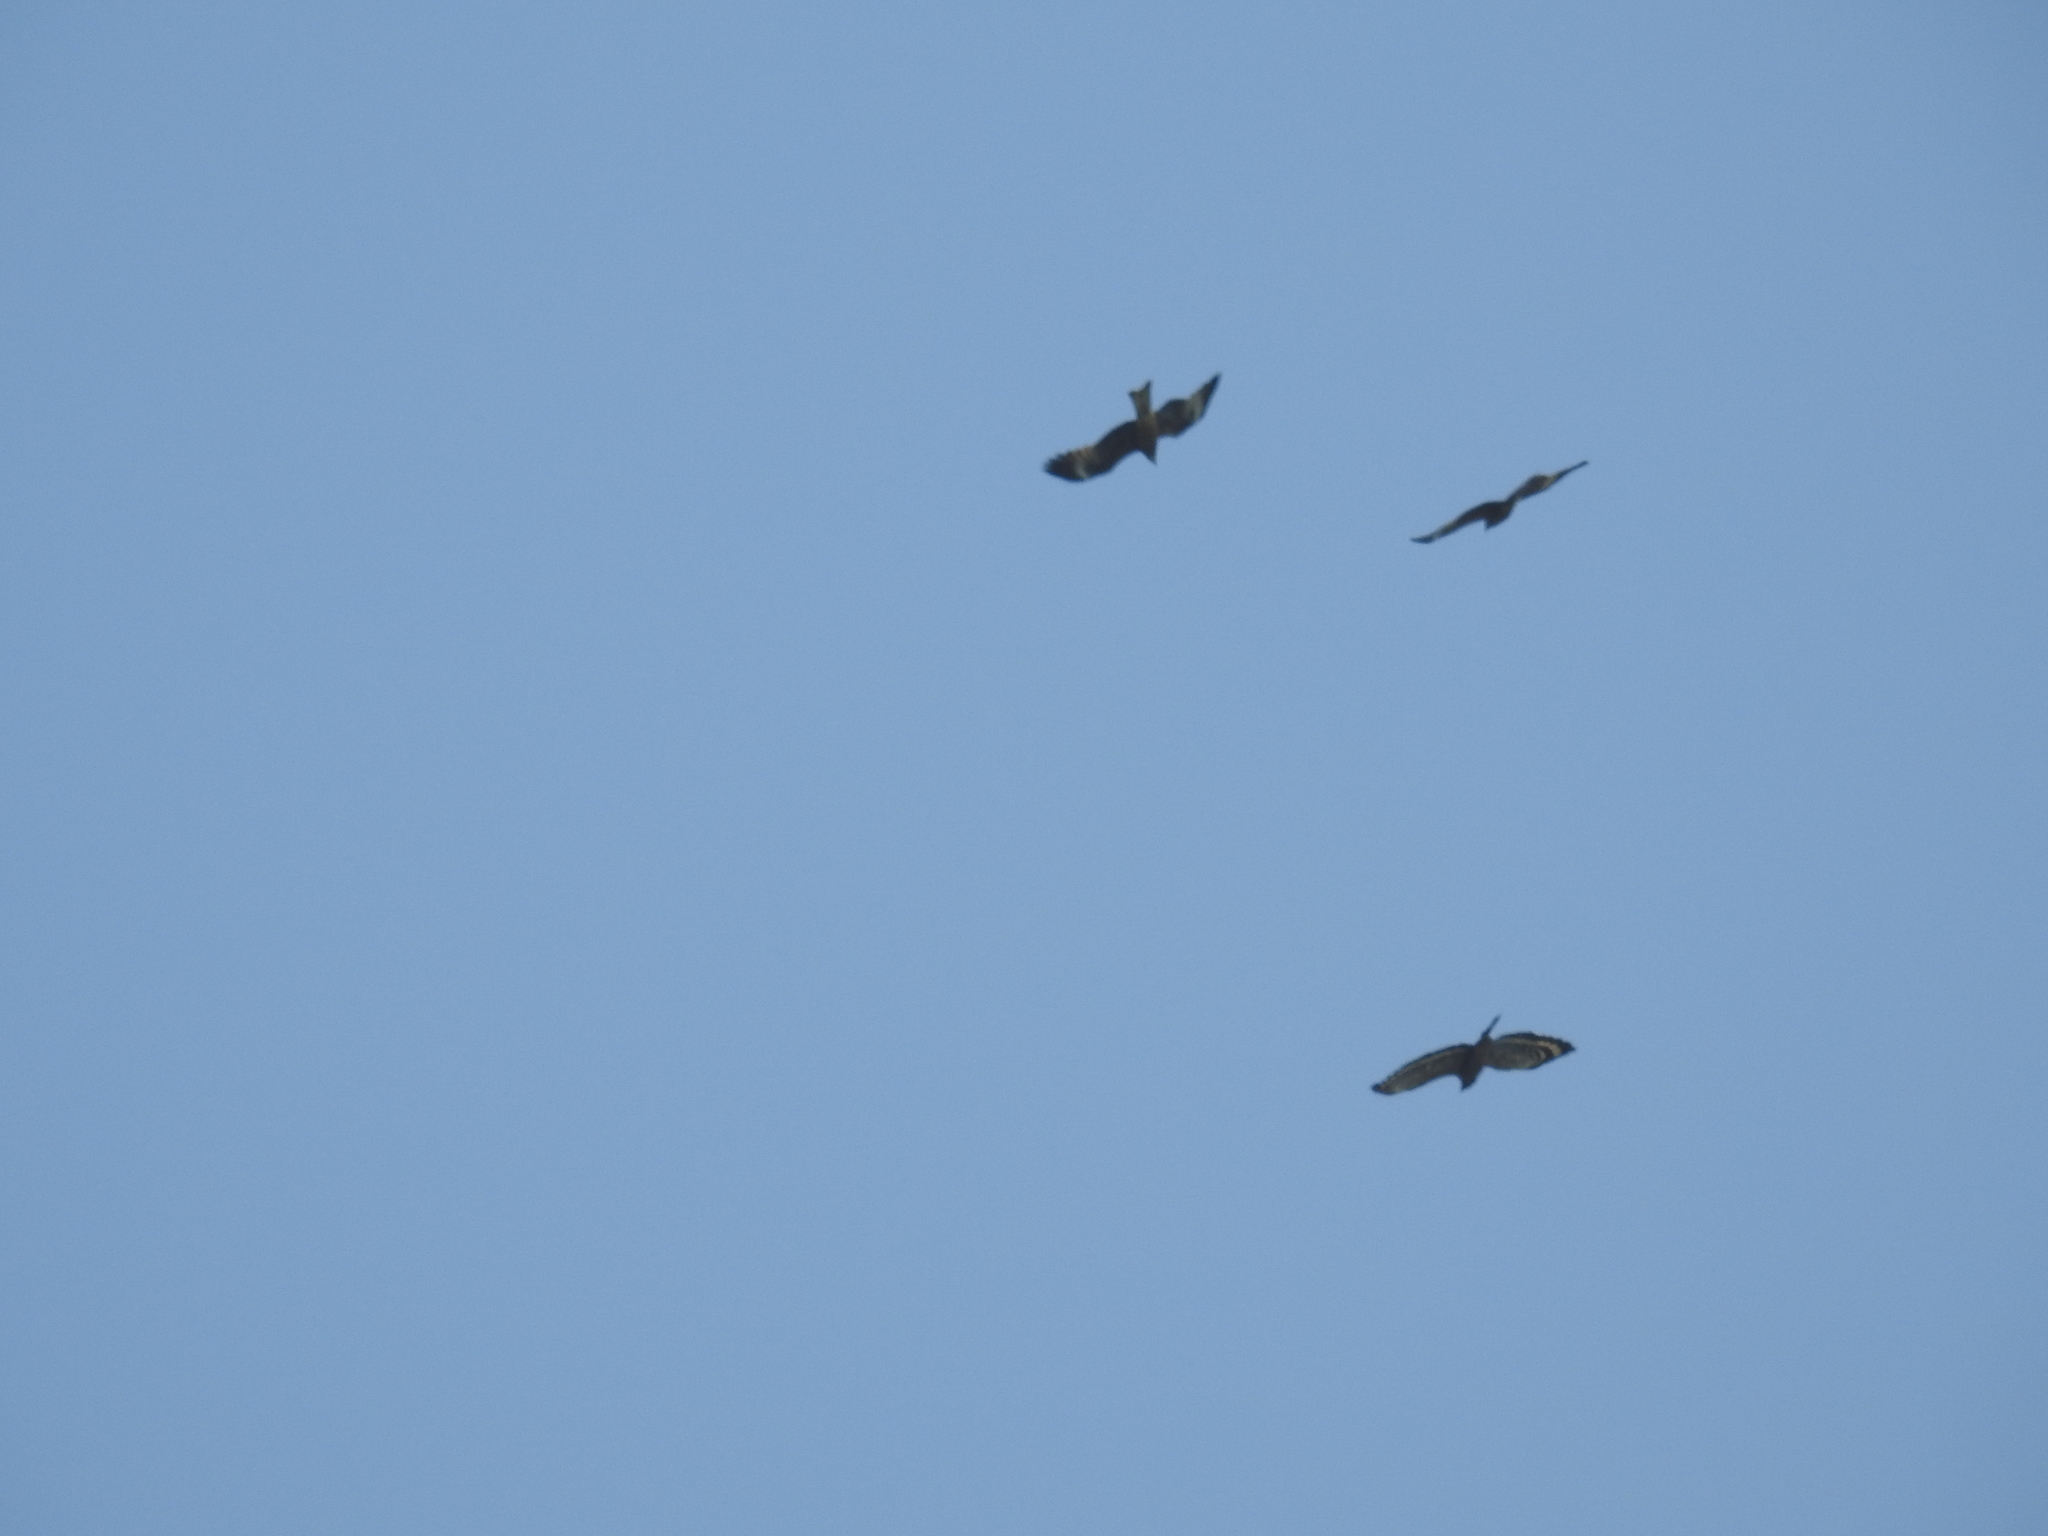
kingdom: Animalia
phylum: Chordata
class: Aves
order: Accipitriformes
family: Accipitridae
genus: Spilornis
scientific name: Spilornis cheela
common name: Crested serpent eagle
